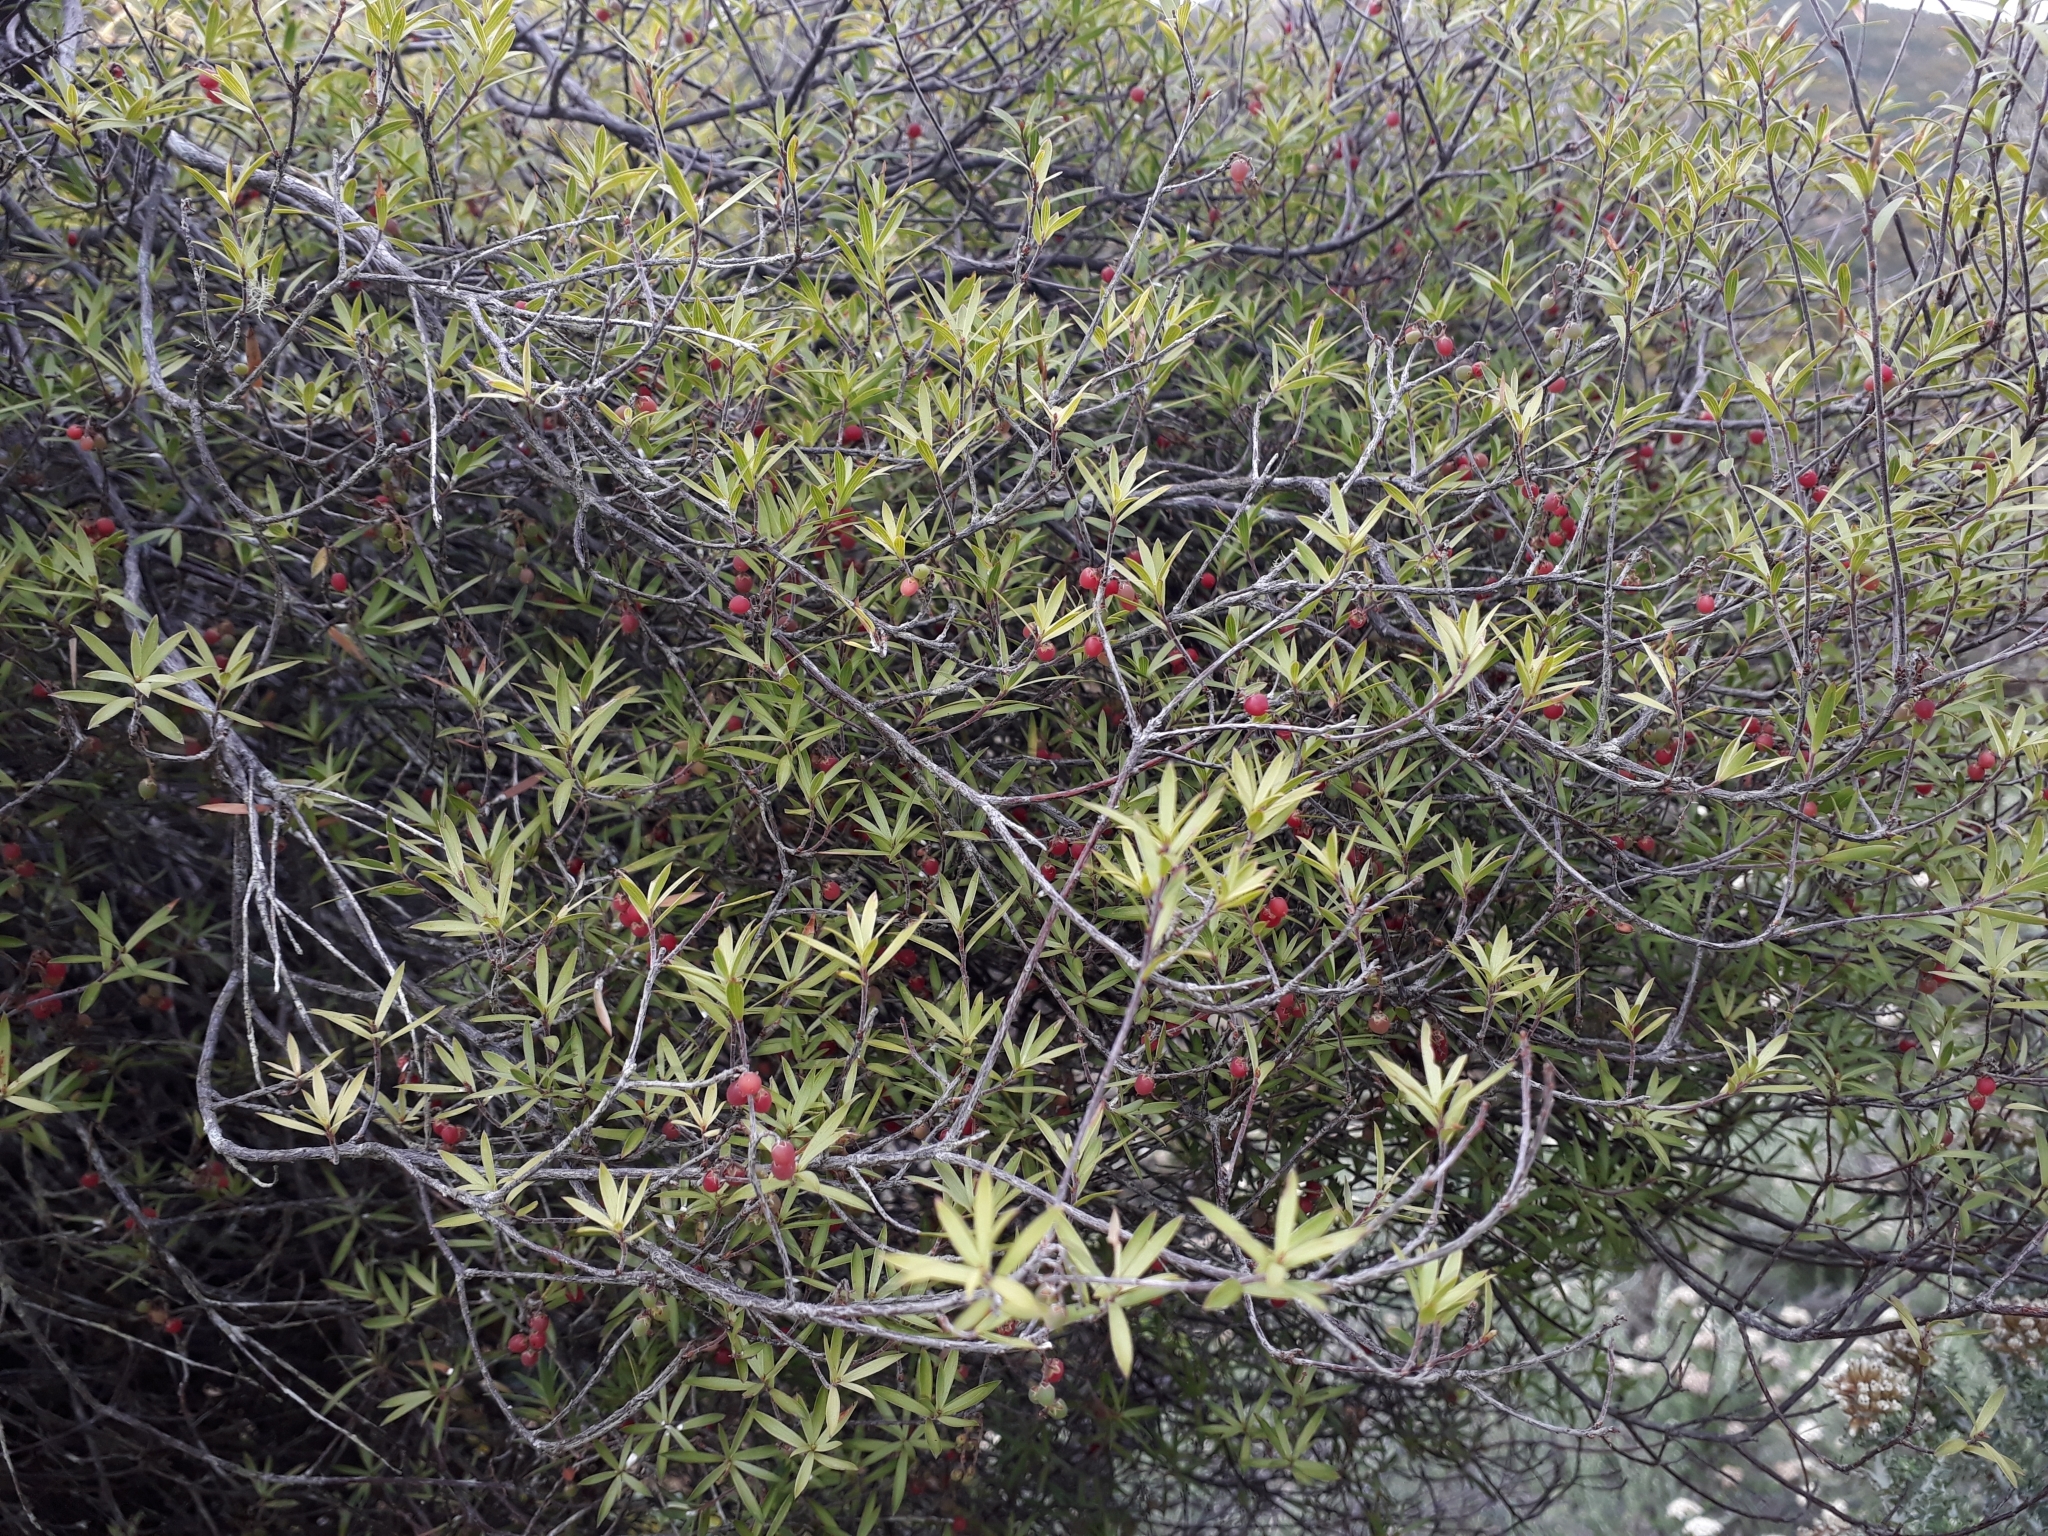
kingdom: Plantae
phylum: Tracheophyta
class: Magnoliopsida
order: Ericales
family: Ericaceae
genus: Leucopogon
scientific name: Leucopogon fasciculatus
